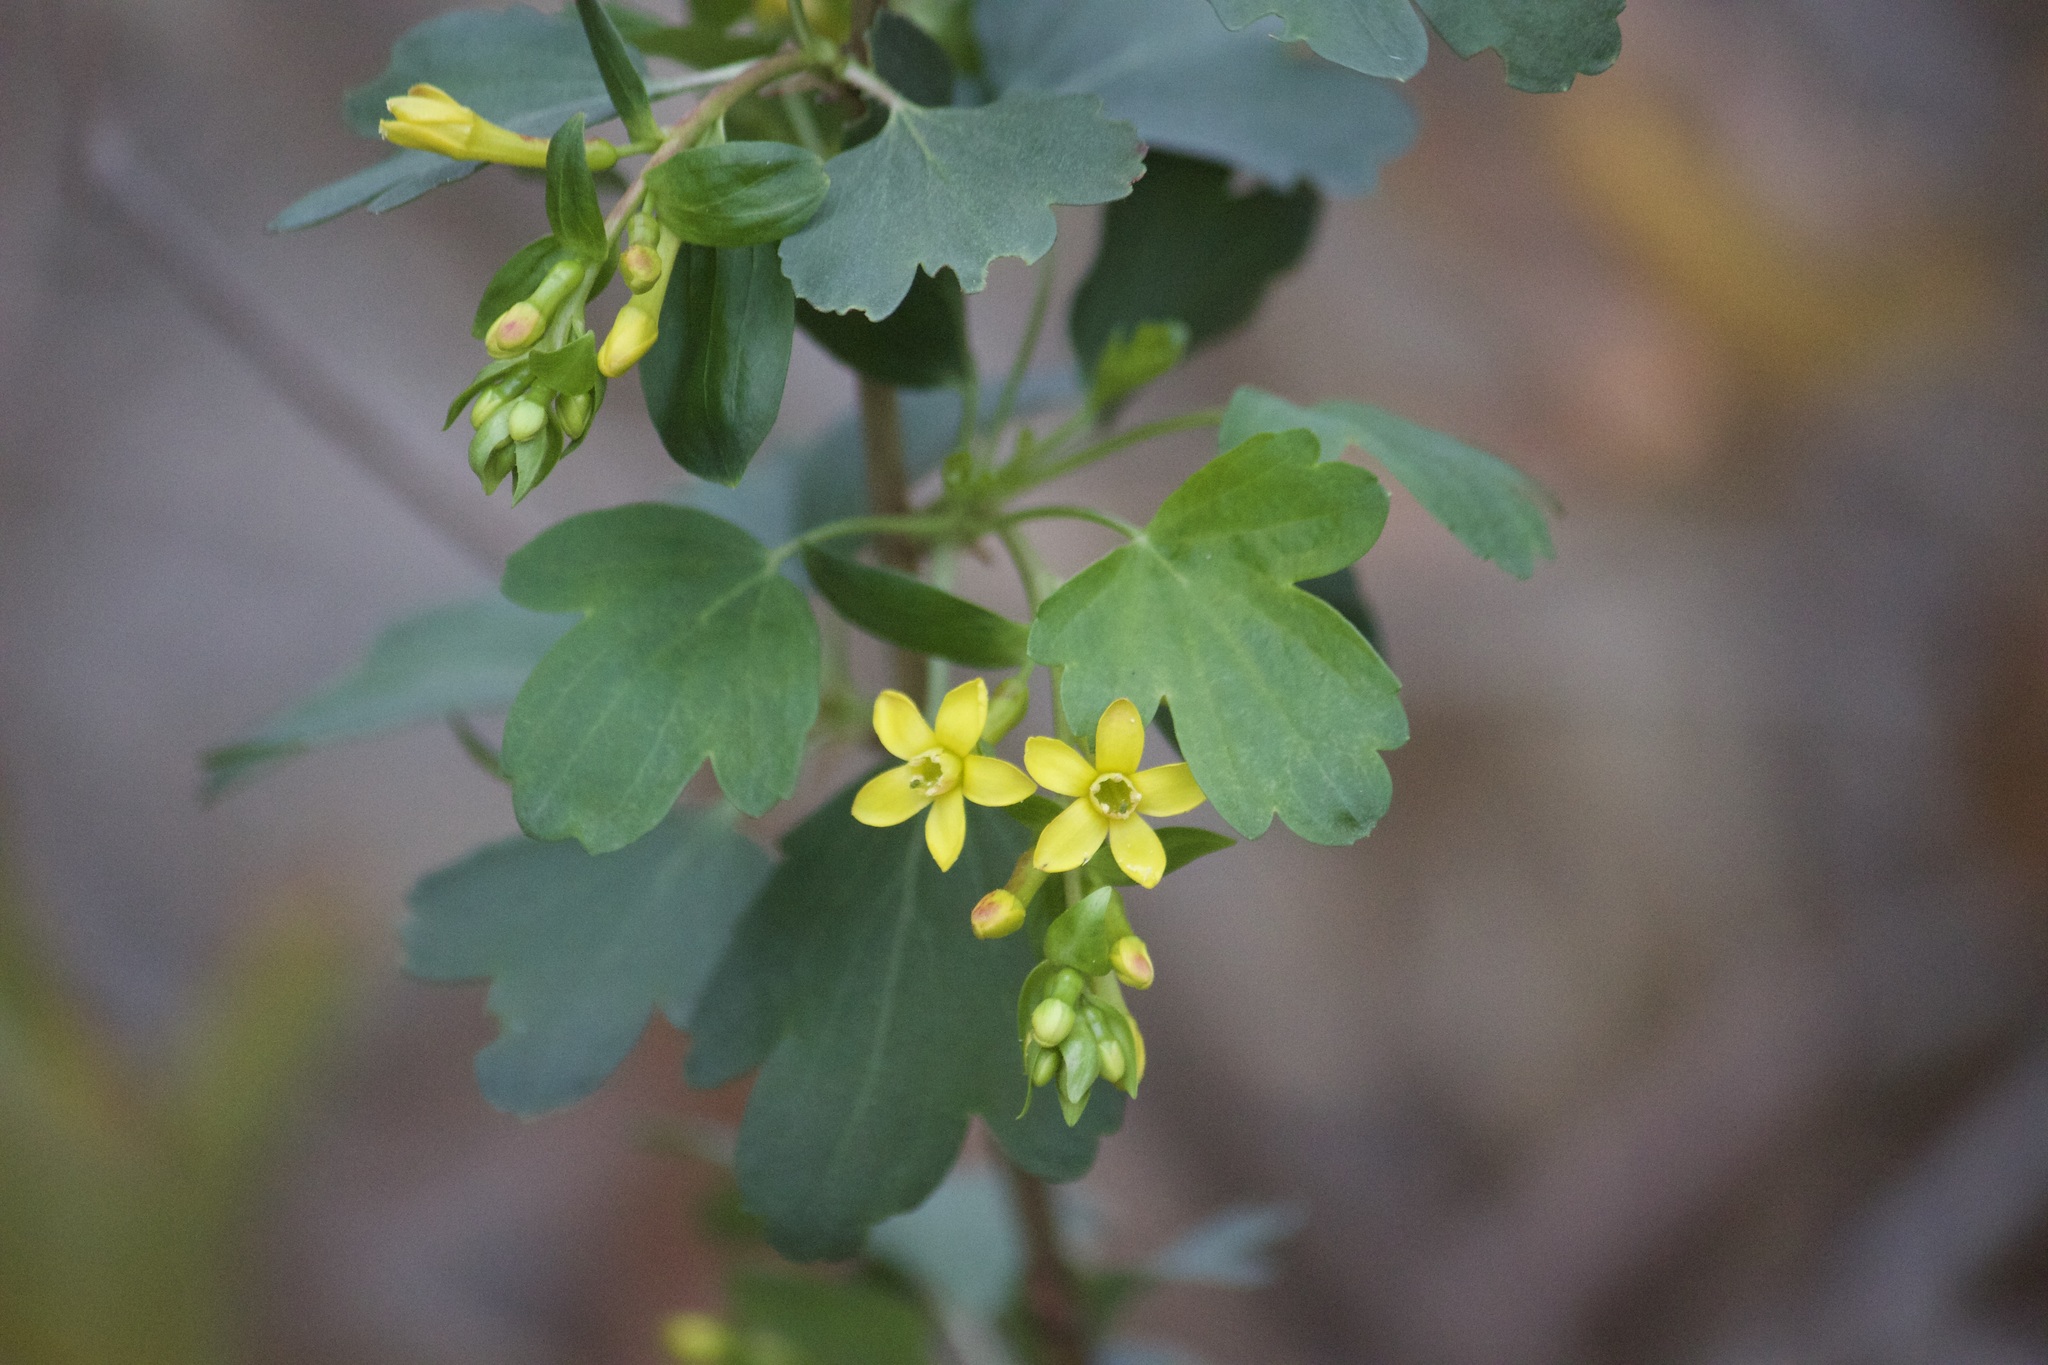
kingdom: Plantae
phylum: Tracheophyta
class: Magnoliopsida
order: Saxifragales
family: Grossulariaceae
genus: Ribes
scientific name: Ribes aureum
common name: Golden currant
